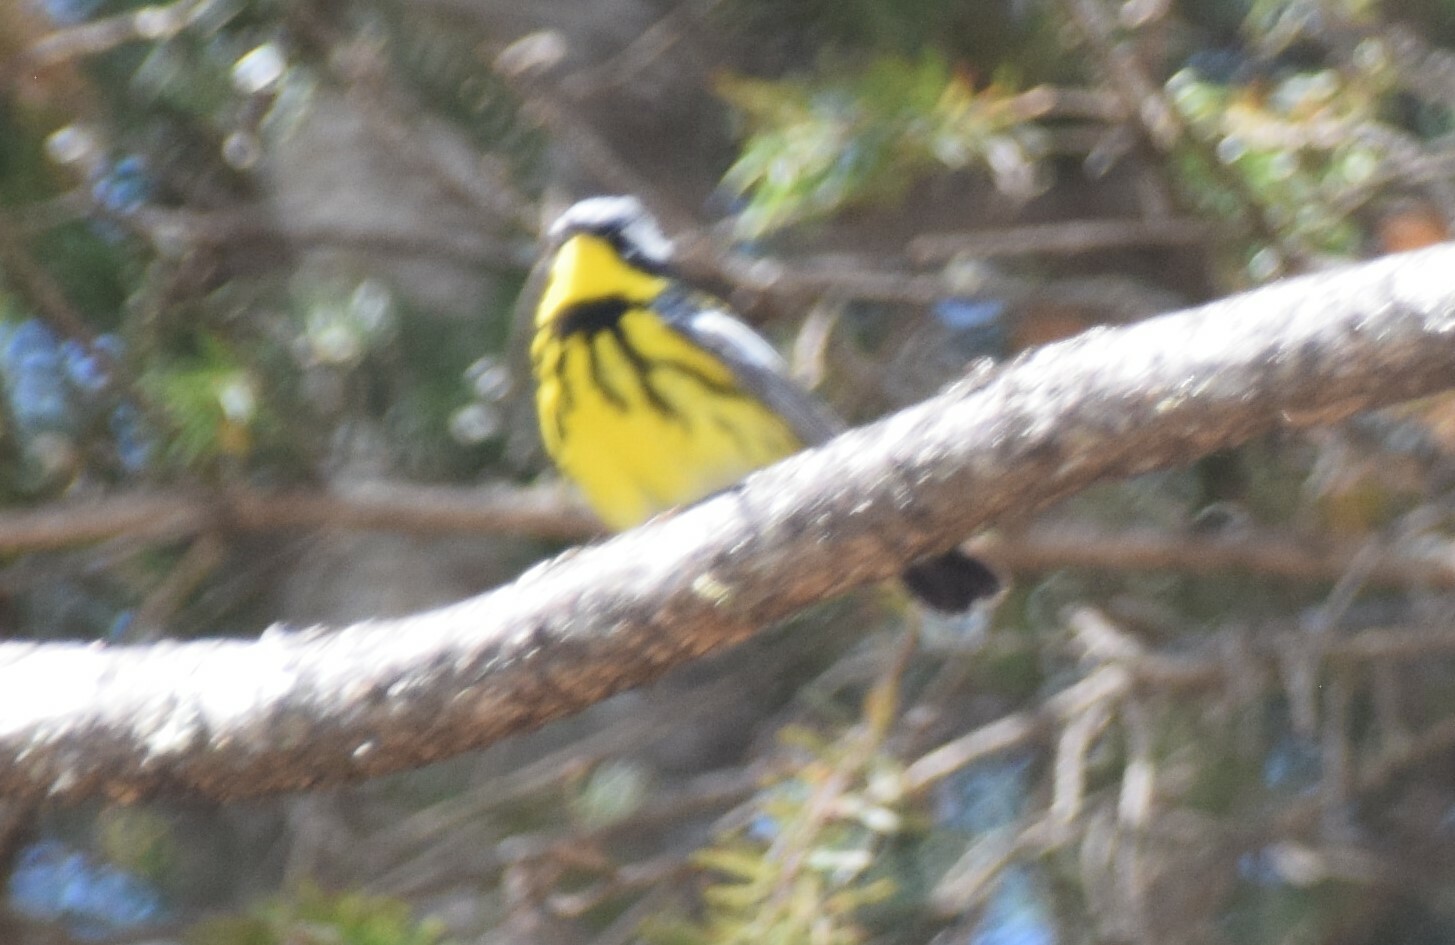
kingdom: Animalia
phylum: Chordata
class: Aves
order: Passeriformes
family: Parulidae
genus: Setophaga
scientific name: Setophaga magnolia
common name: Magnolia warbler
